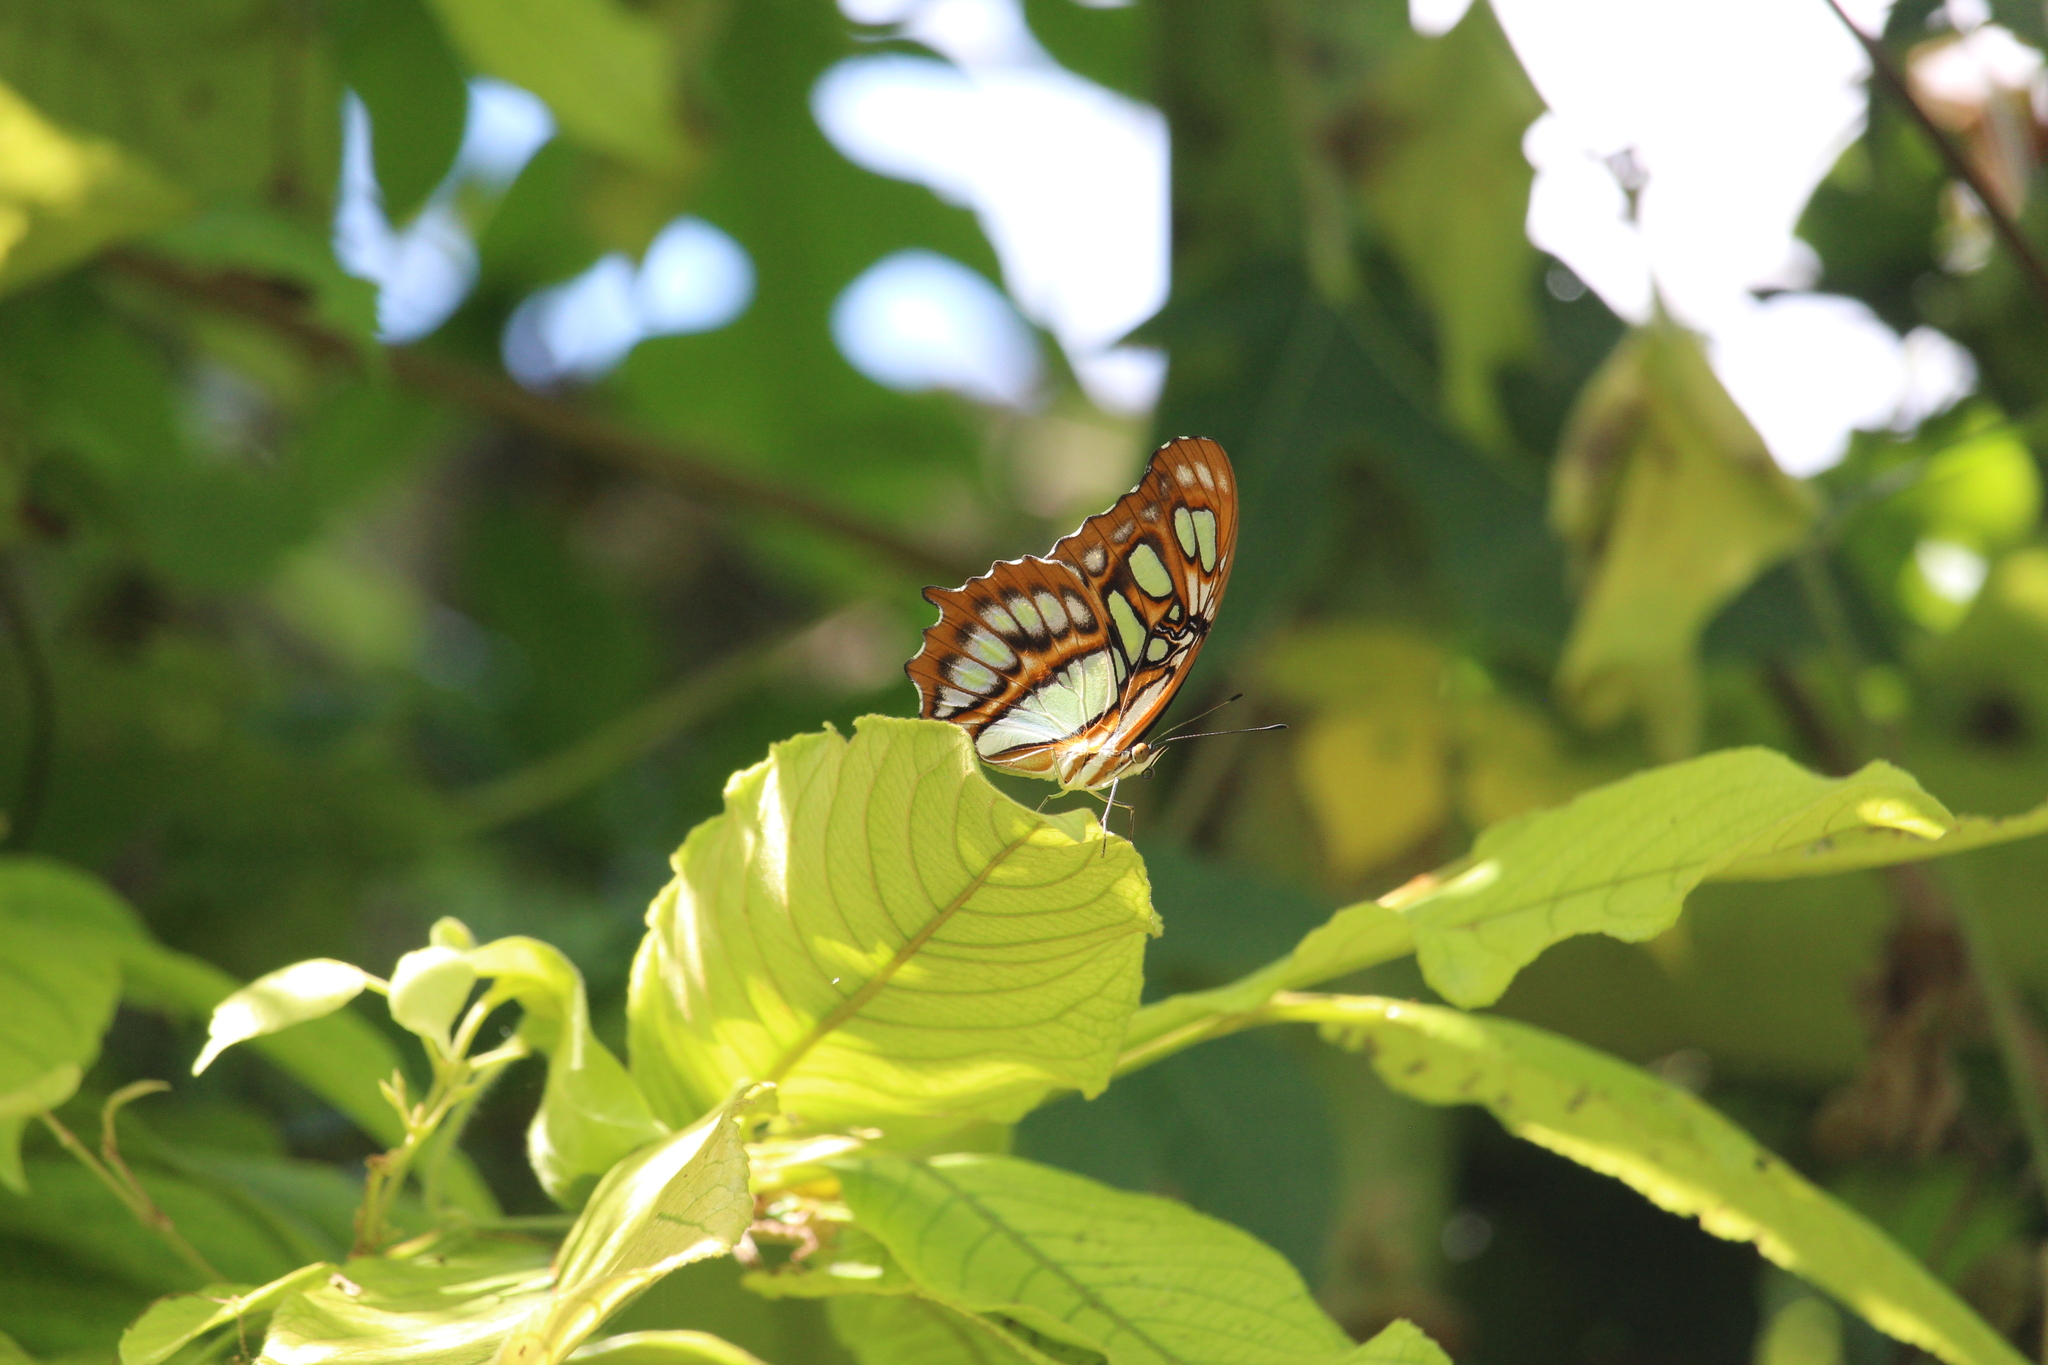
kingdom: Animalia
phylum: Arthropoda
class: Insecta
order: Lepidoptera
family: Nymphalidae
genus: Siproeta
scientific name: Siproeta stelenes
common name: Malachite
